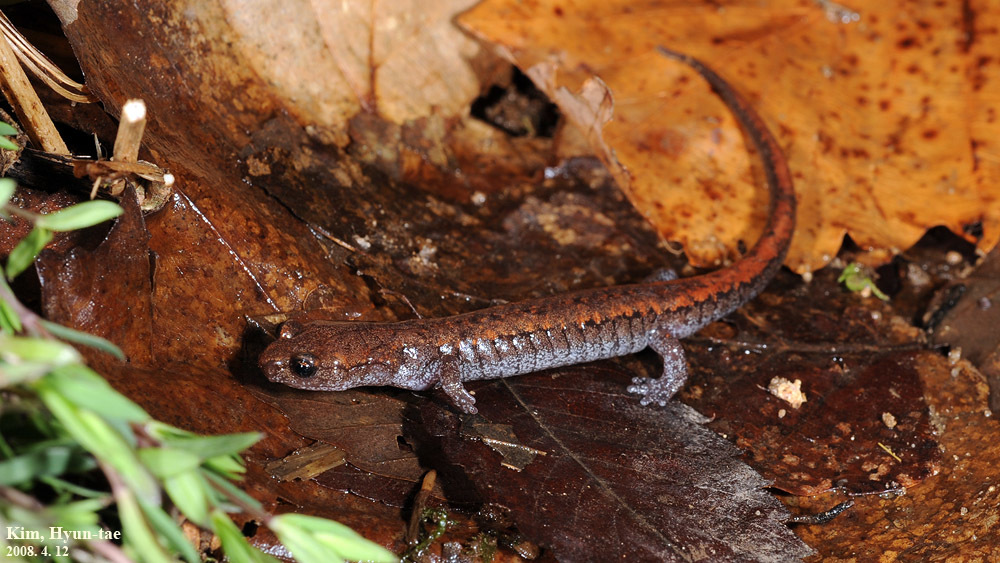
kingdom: Animalia
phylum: Chordata
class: Amphibia
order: Caudata
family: Plethodontidae
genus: Karsenia
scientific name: Karsenia koreana
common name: Korean crevice salamander
